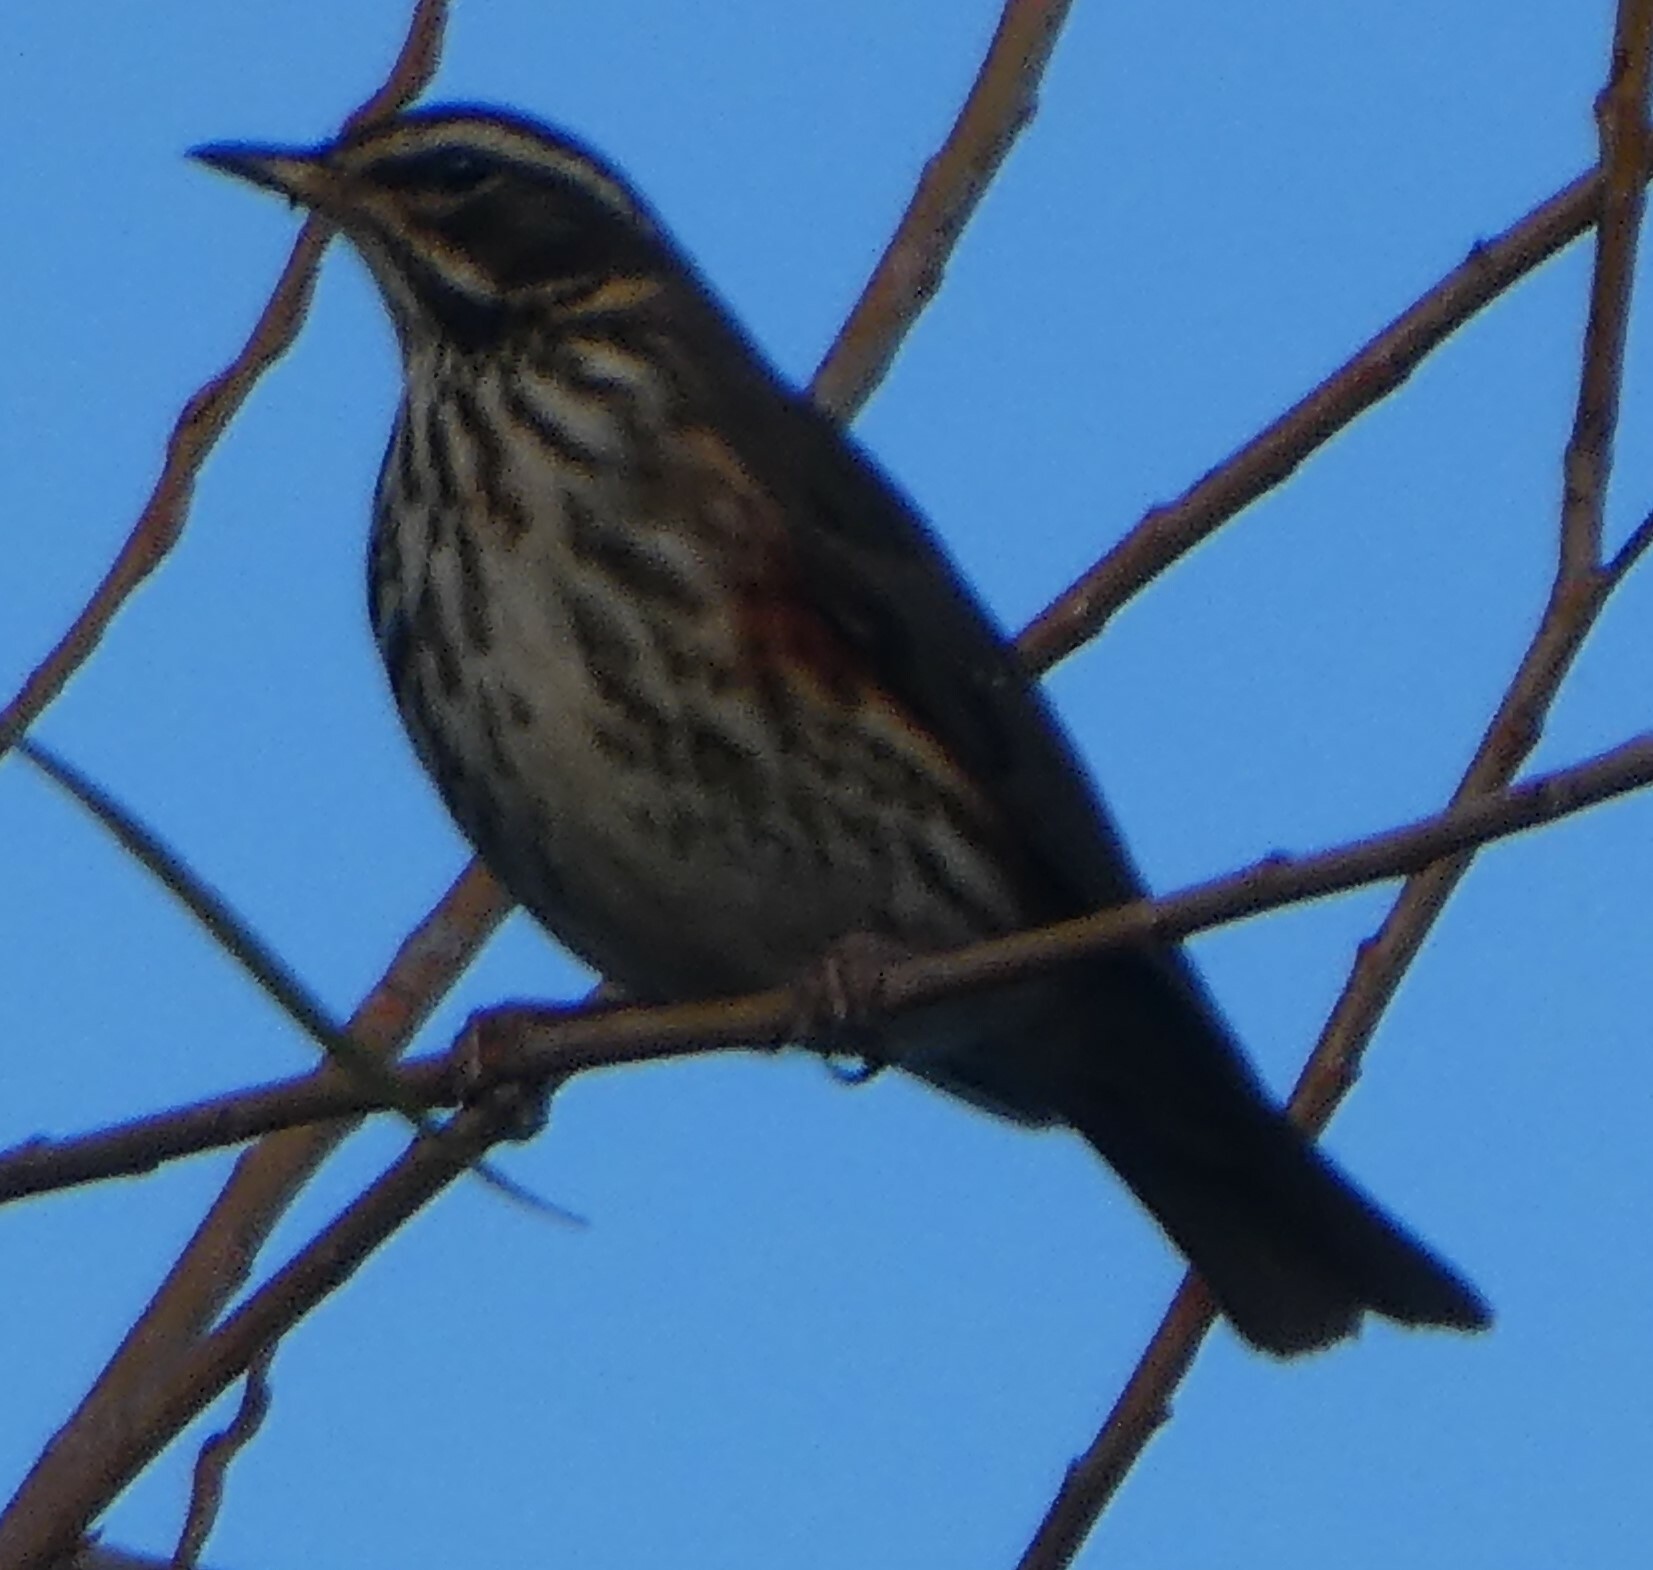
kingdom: Animalia
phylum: Chordata
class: Aves
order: Passeriformes
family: Turdidae
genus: Turdus
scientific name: Turdus iliacus
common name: Redwing
